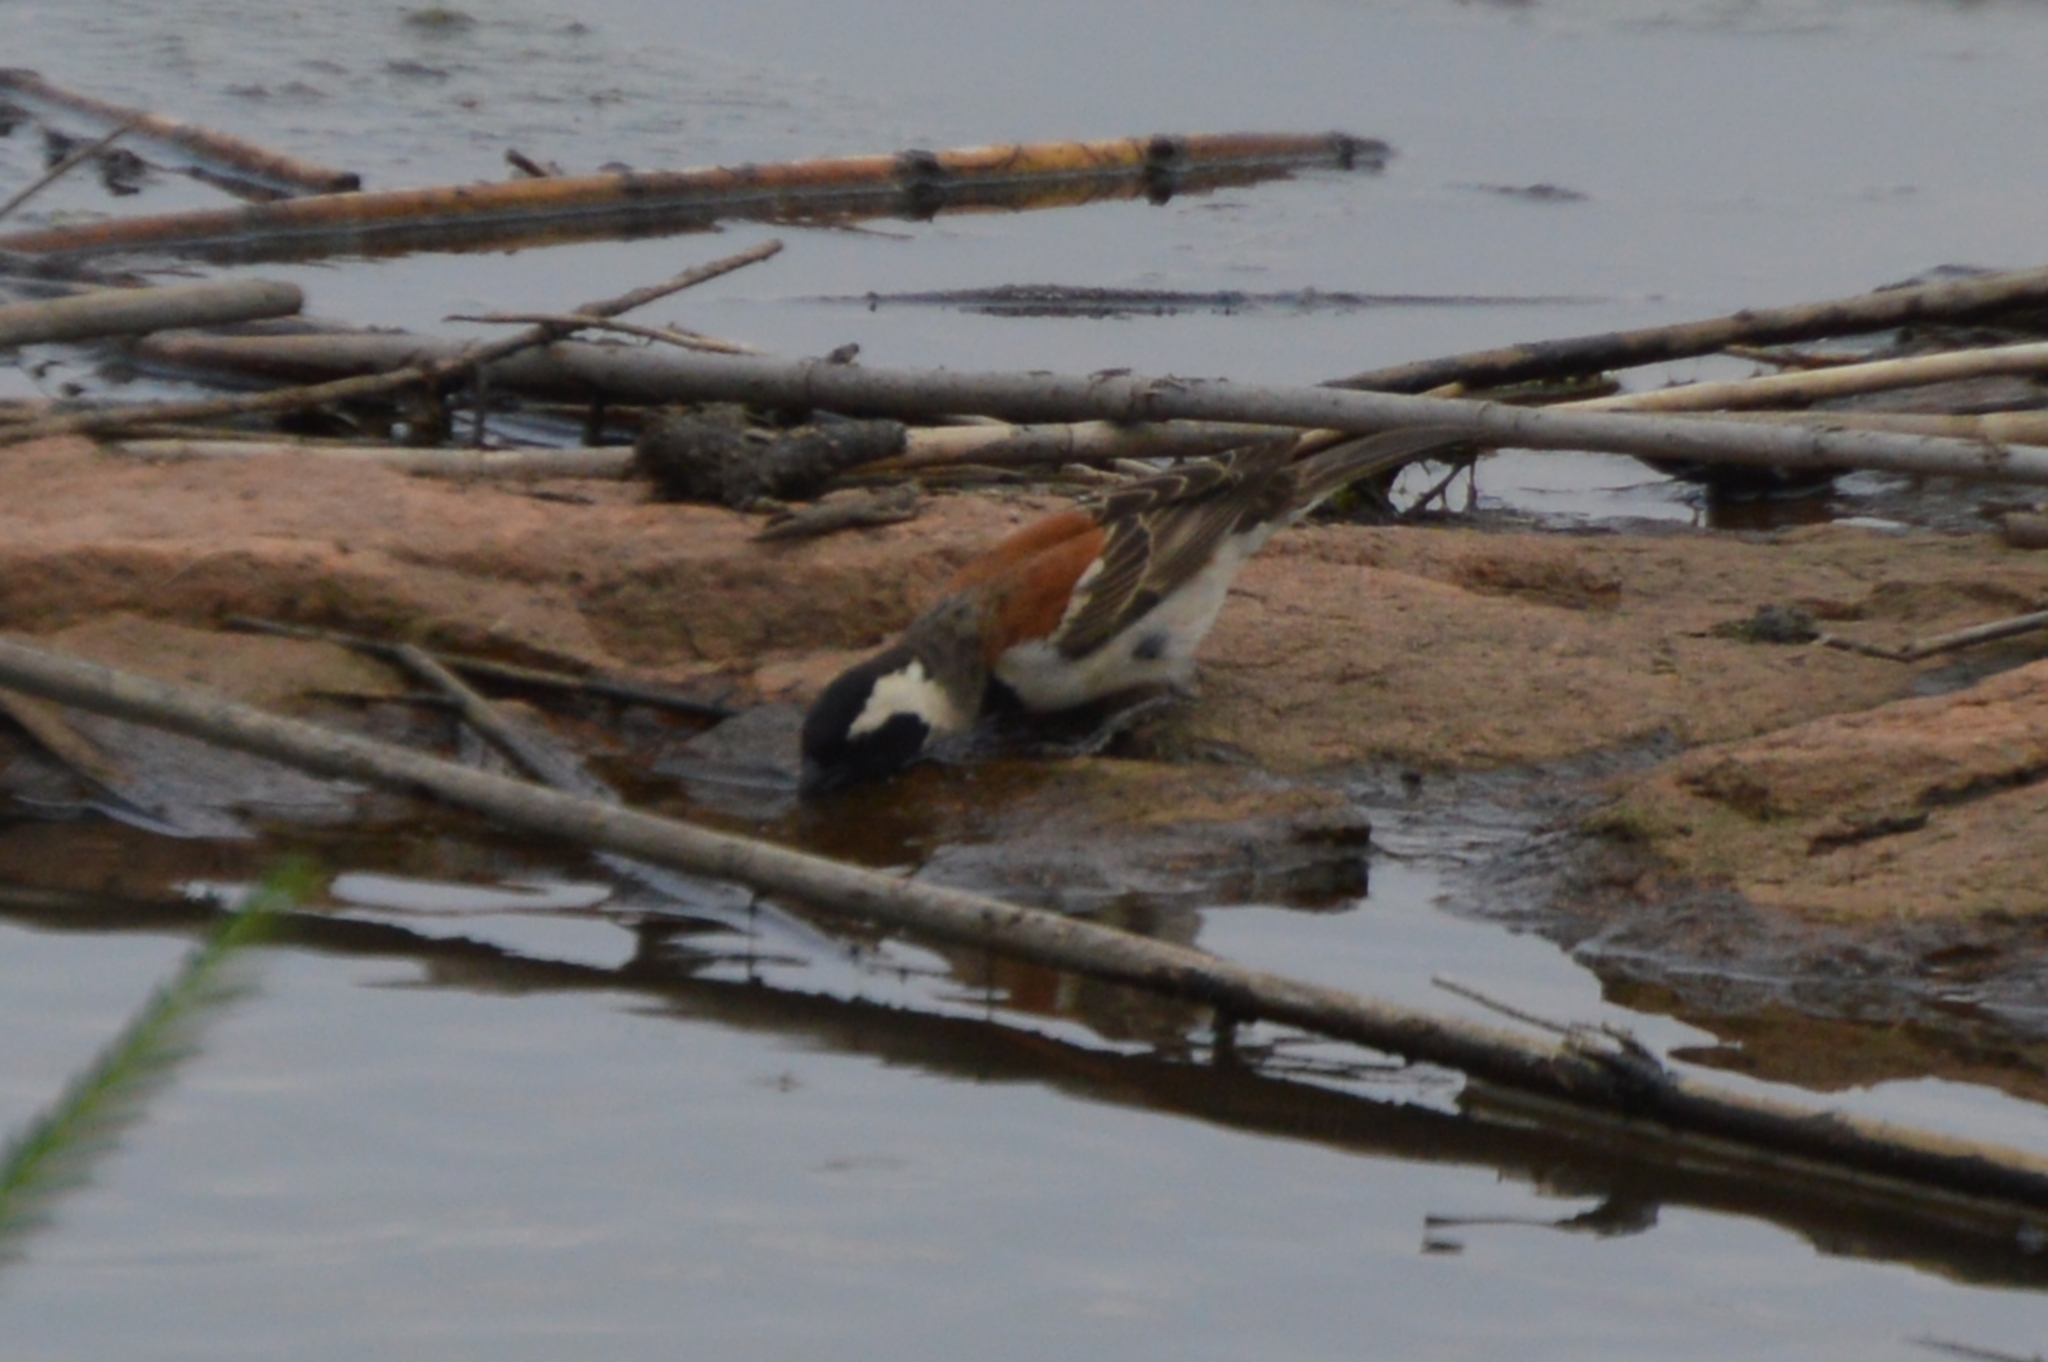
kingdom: Animalia
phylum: Chordata
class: Aves
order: Passeriformes
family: Passeridae
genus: Passer
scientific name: Passer melanurus
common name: Cape sparrow
